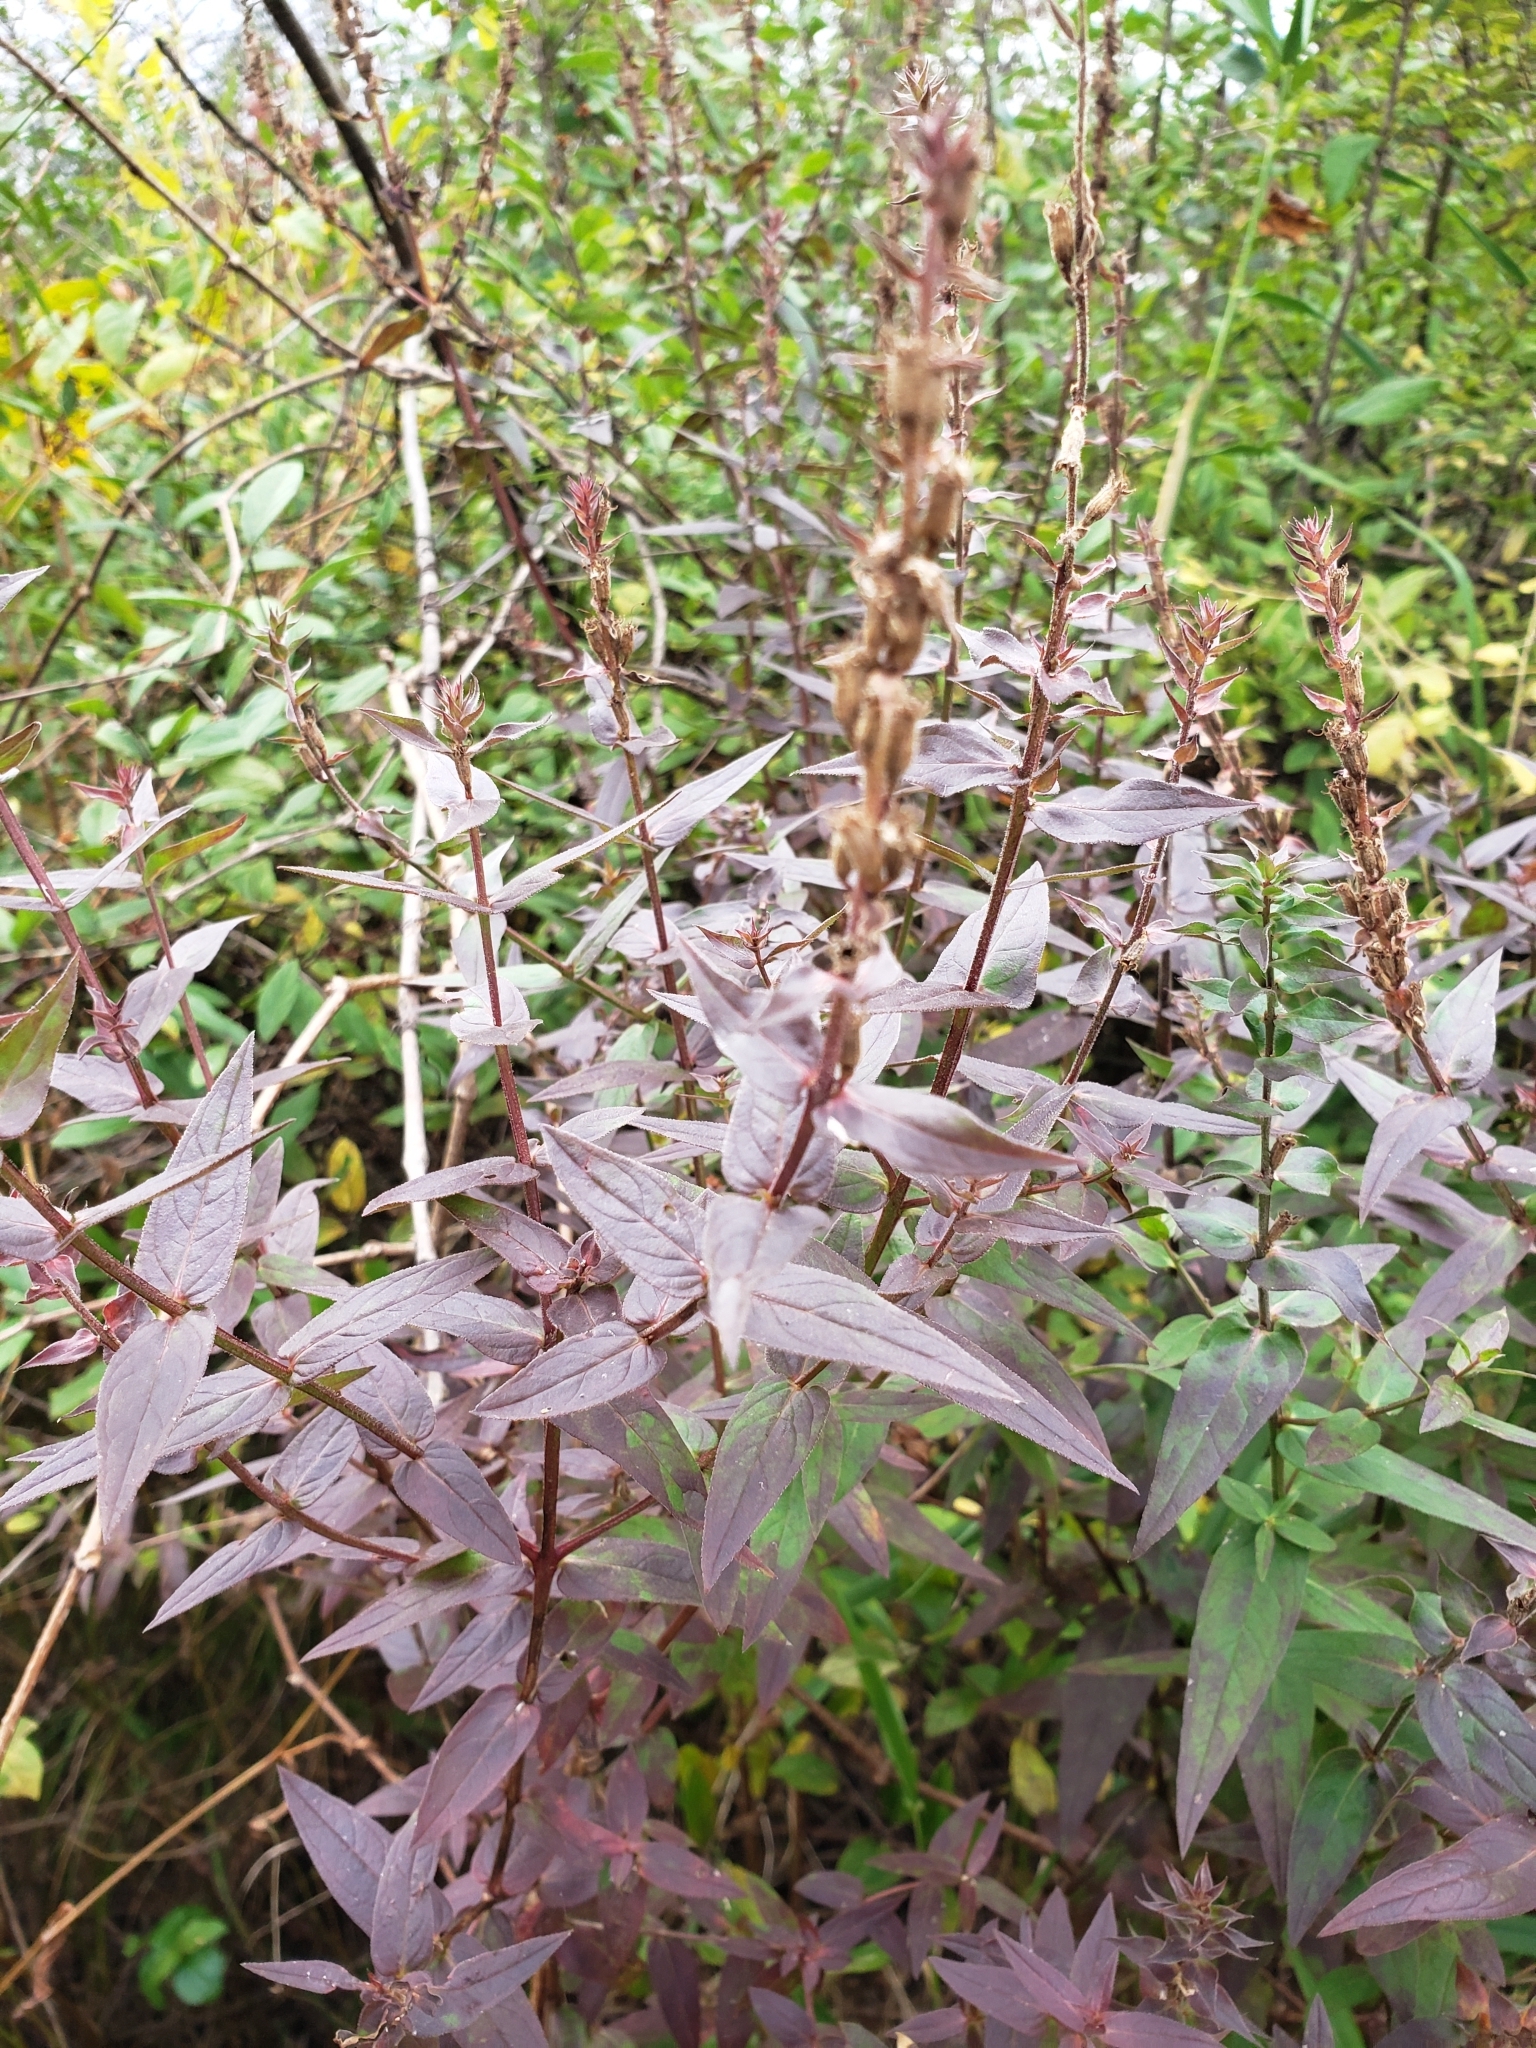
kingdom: Plantae
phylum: Tracheophyta
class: Magnoliopsida
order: Myrtales
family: Lythraceae
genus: Lythrum
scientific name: Lythrum salicaria
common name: Purple loosestrife
